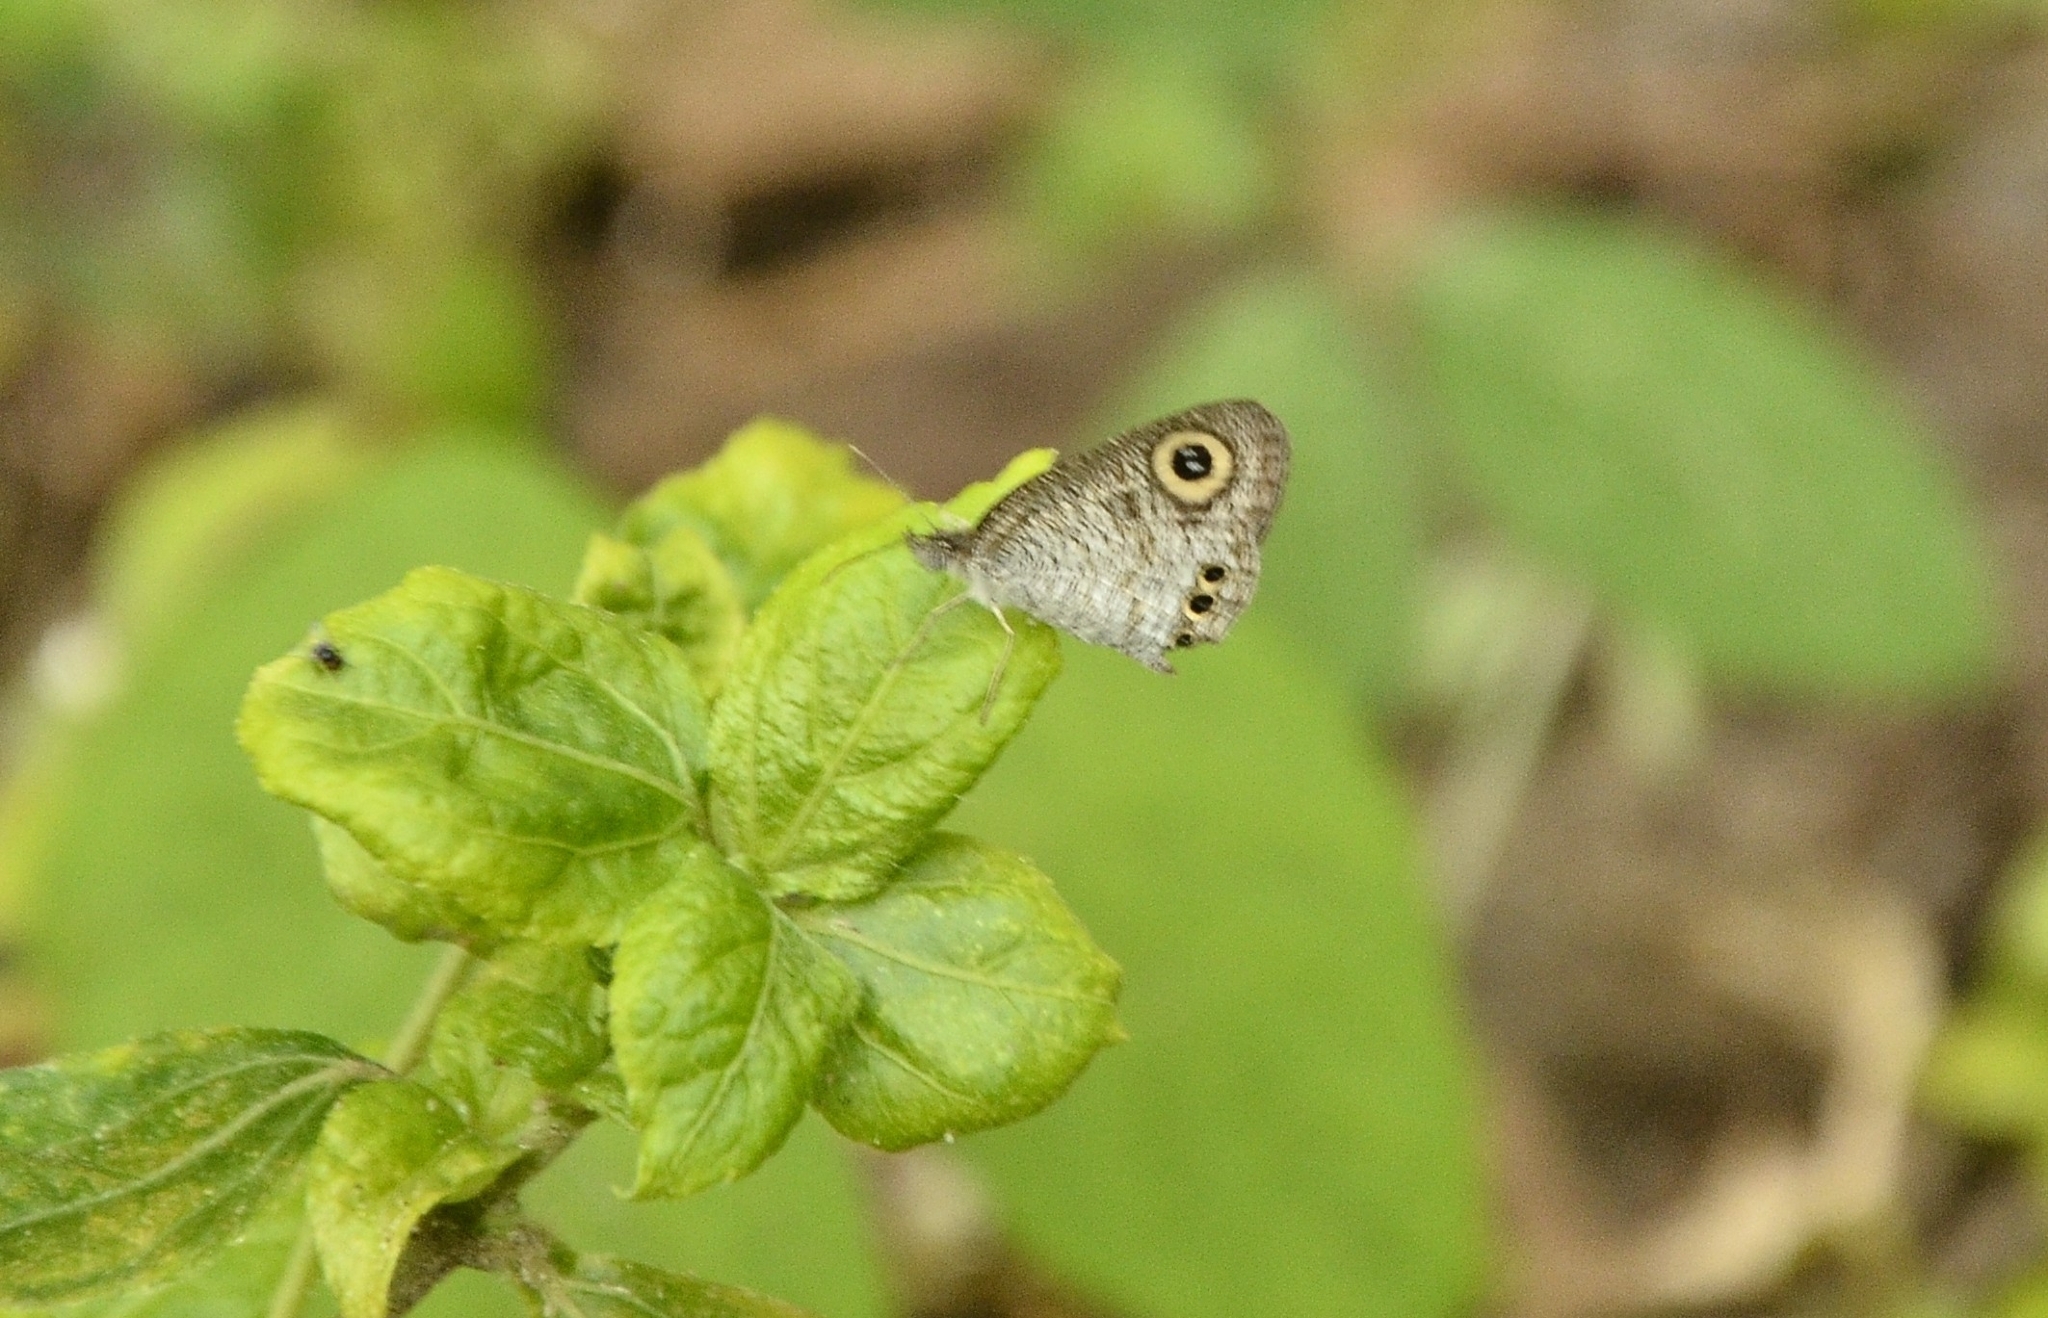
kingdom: Animalia
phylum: Arthropoda
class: Insecta
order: Lepidoptera
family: Nymphalidae
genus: Ypthima
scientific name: Ypthima huebneri
